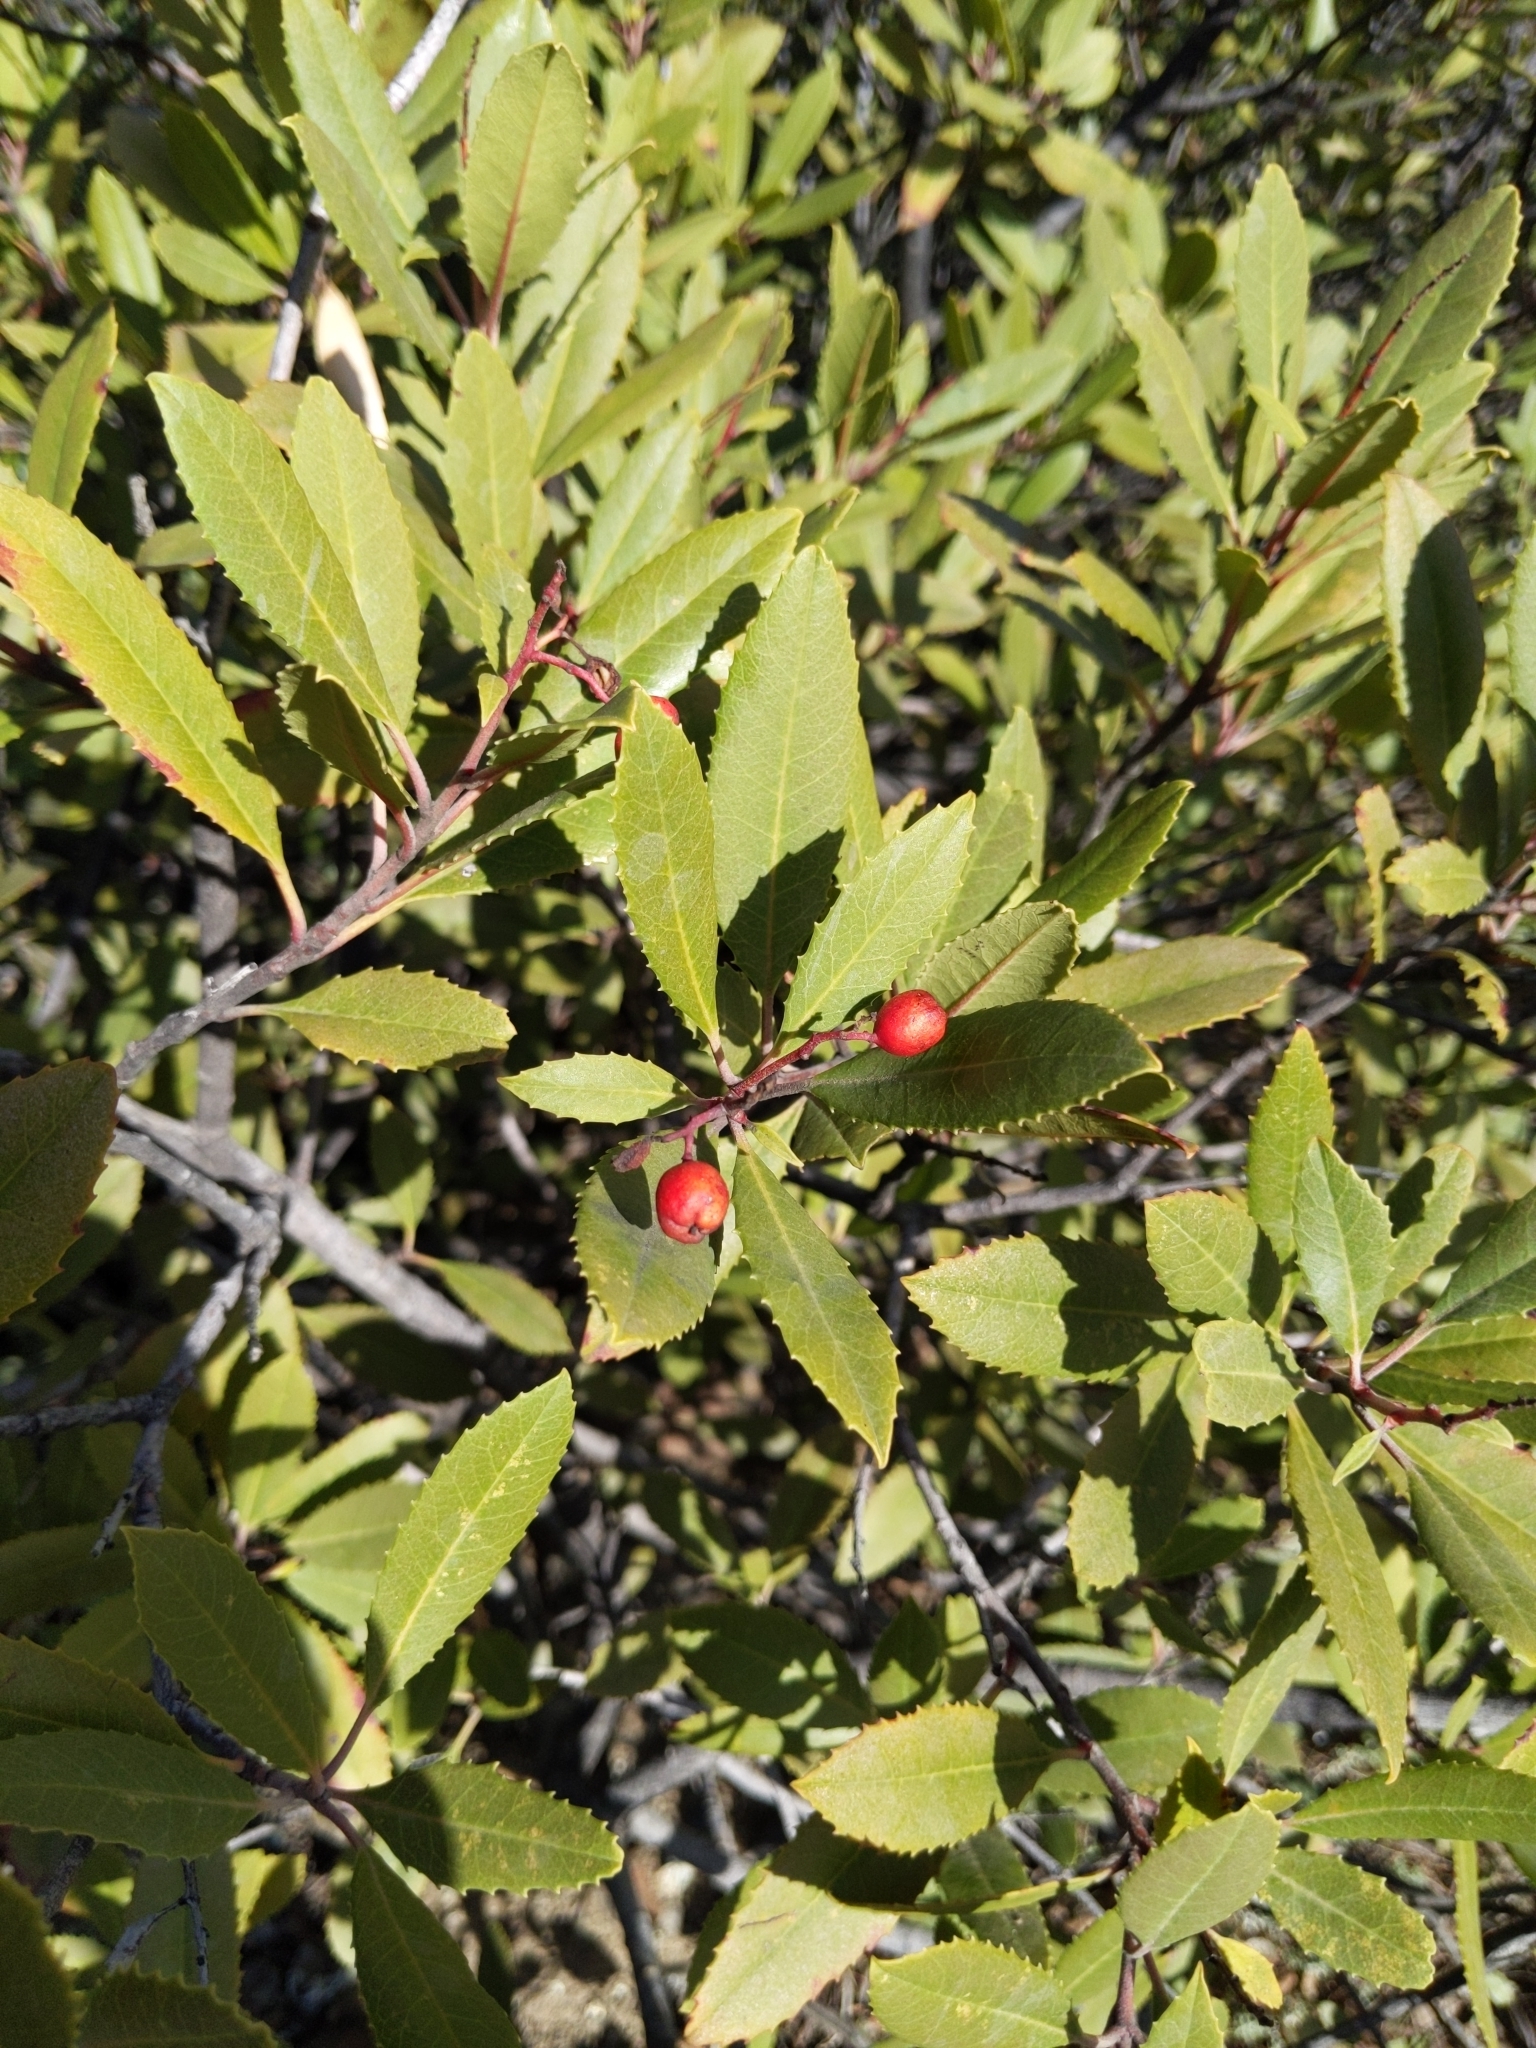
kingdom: Plantae
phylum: Tracheophyta
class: Magnoliopsida
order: Rosales
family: Rosaceae
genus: Heteromeles
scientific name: Heteromeles arbutifolia
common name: California-holly
